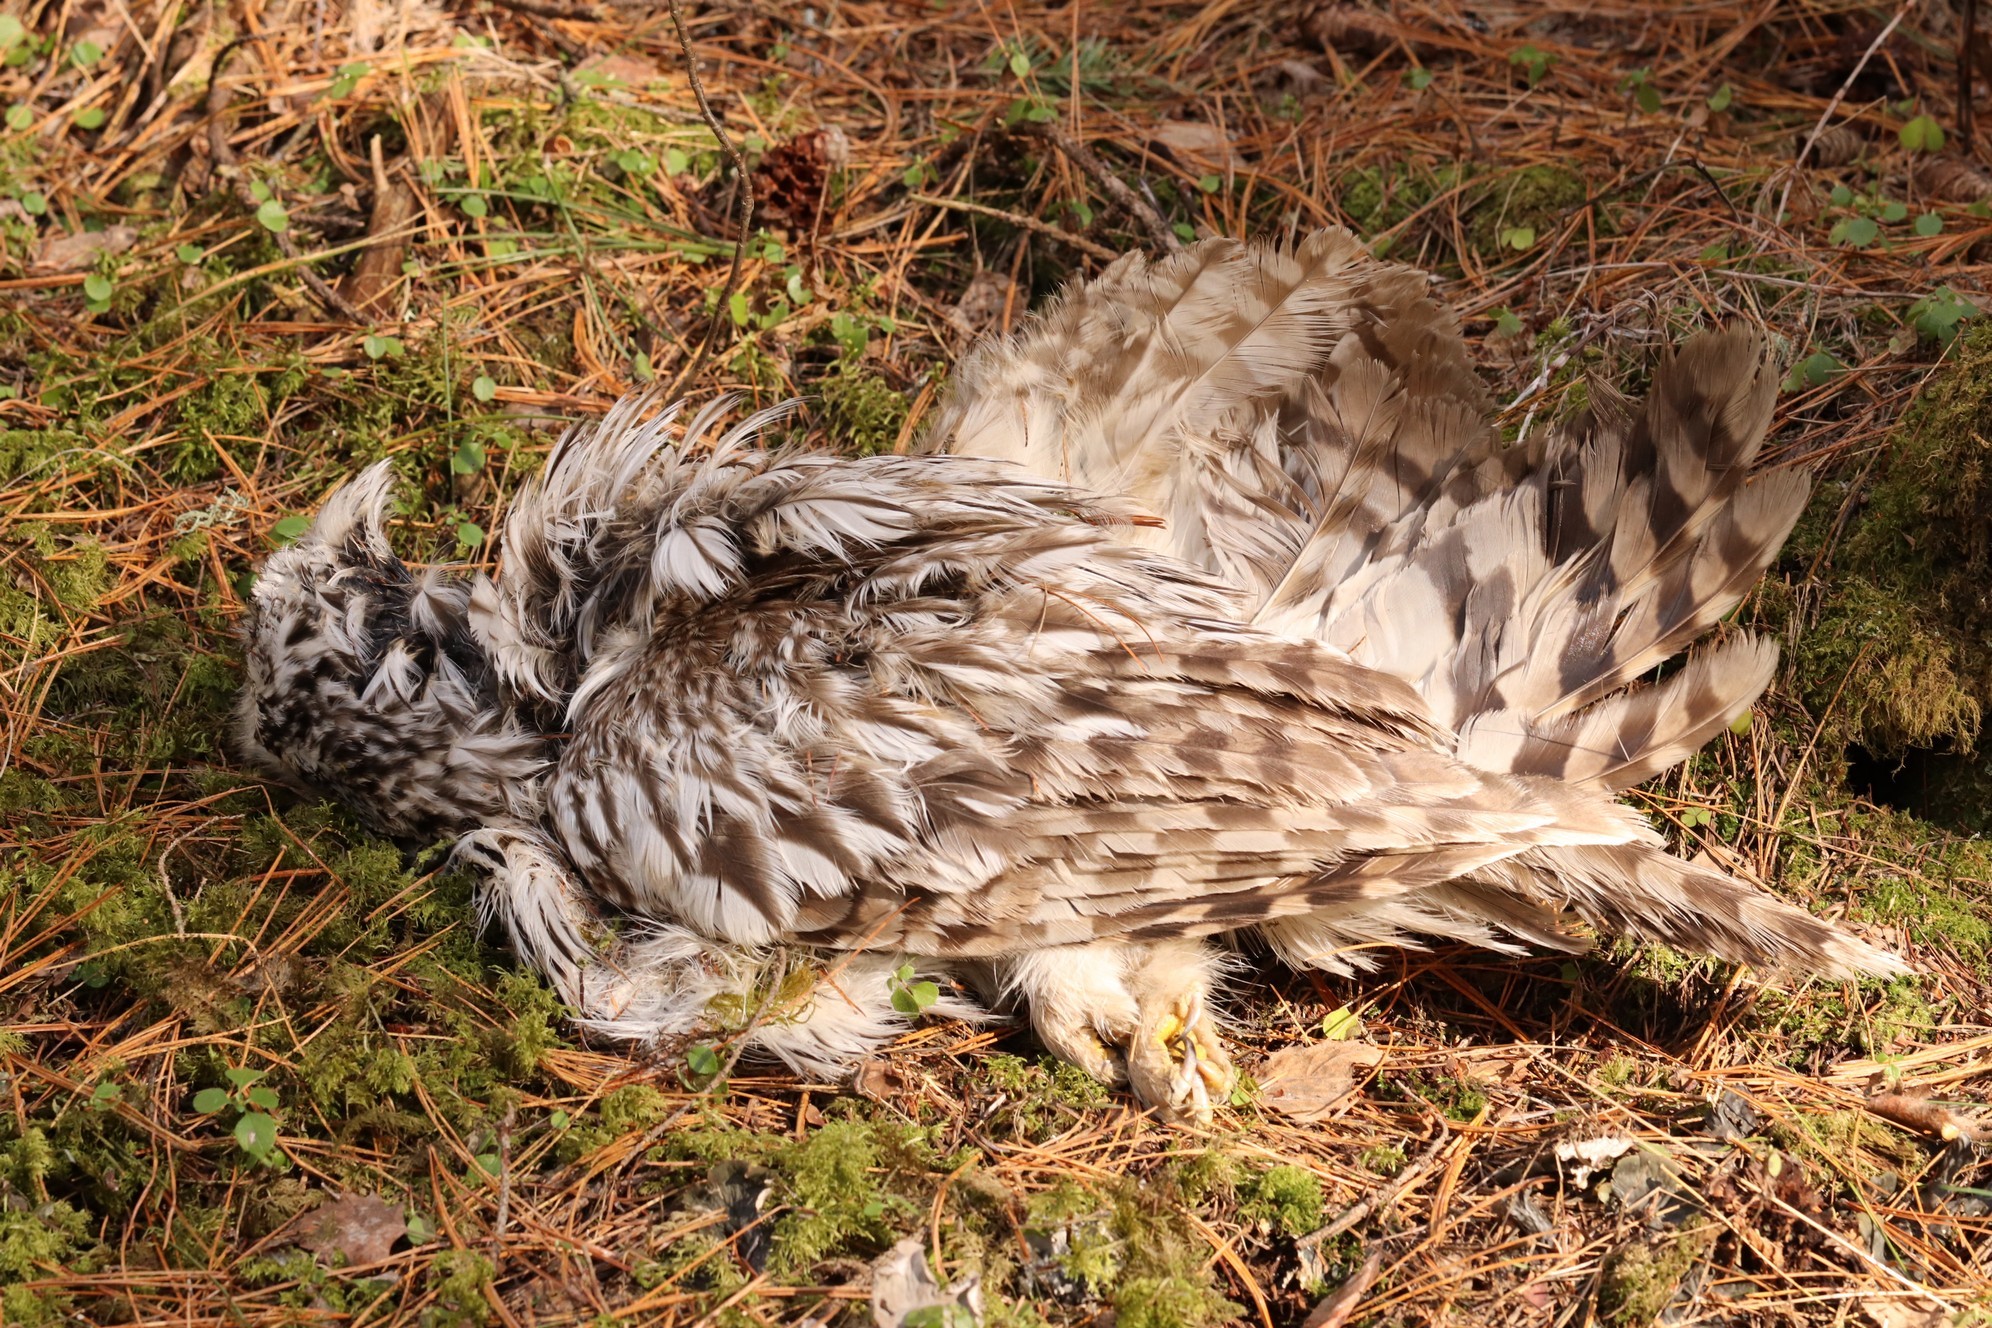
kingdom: Animalia
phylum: Chordata
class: Aves
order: Strigiformes
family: Strigidae
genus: Strix
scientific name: Strix uralensis
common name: Ural owl
